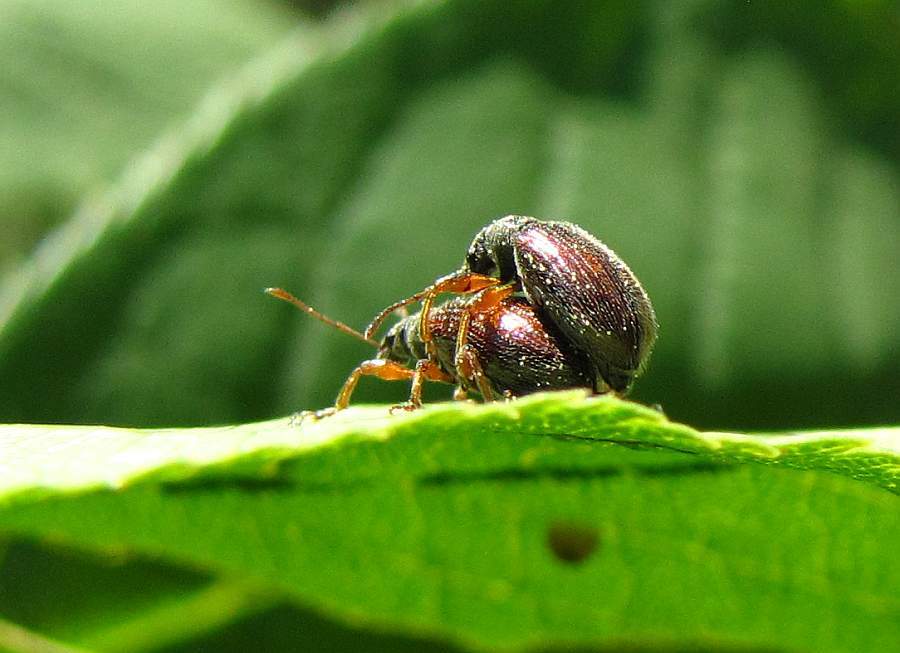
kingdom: Animalia
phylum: Arthropoda
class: Insecta
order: Coleoptera
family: Curculionidae
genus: Phyllobius
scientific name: Phyllobius oblongus
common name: Brown leaf weevil
